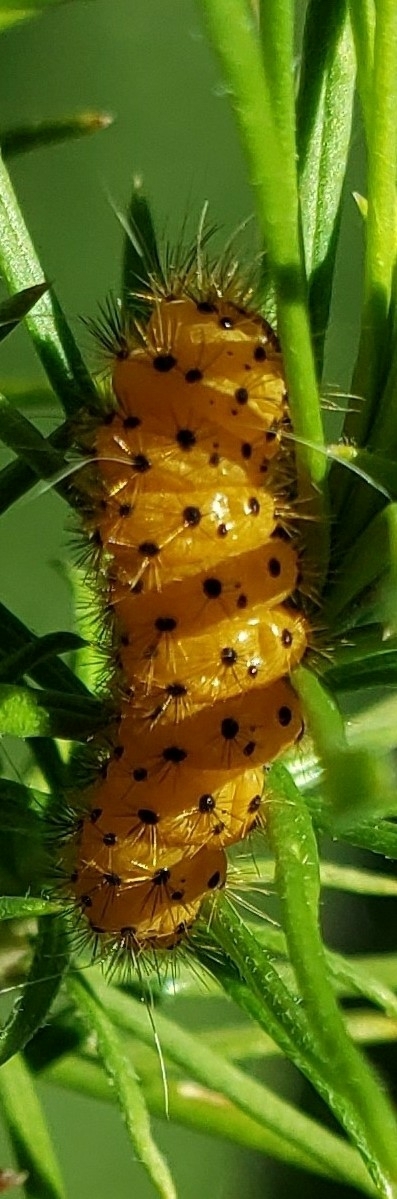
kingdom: Animalia
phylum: Arthropoda
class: Insecta
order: Lepidoptera
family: Erebidae
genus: Lerina
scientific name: Lerina incarnata
